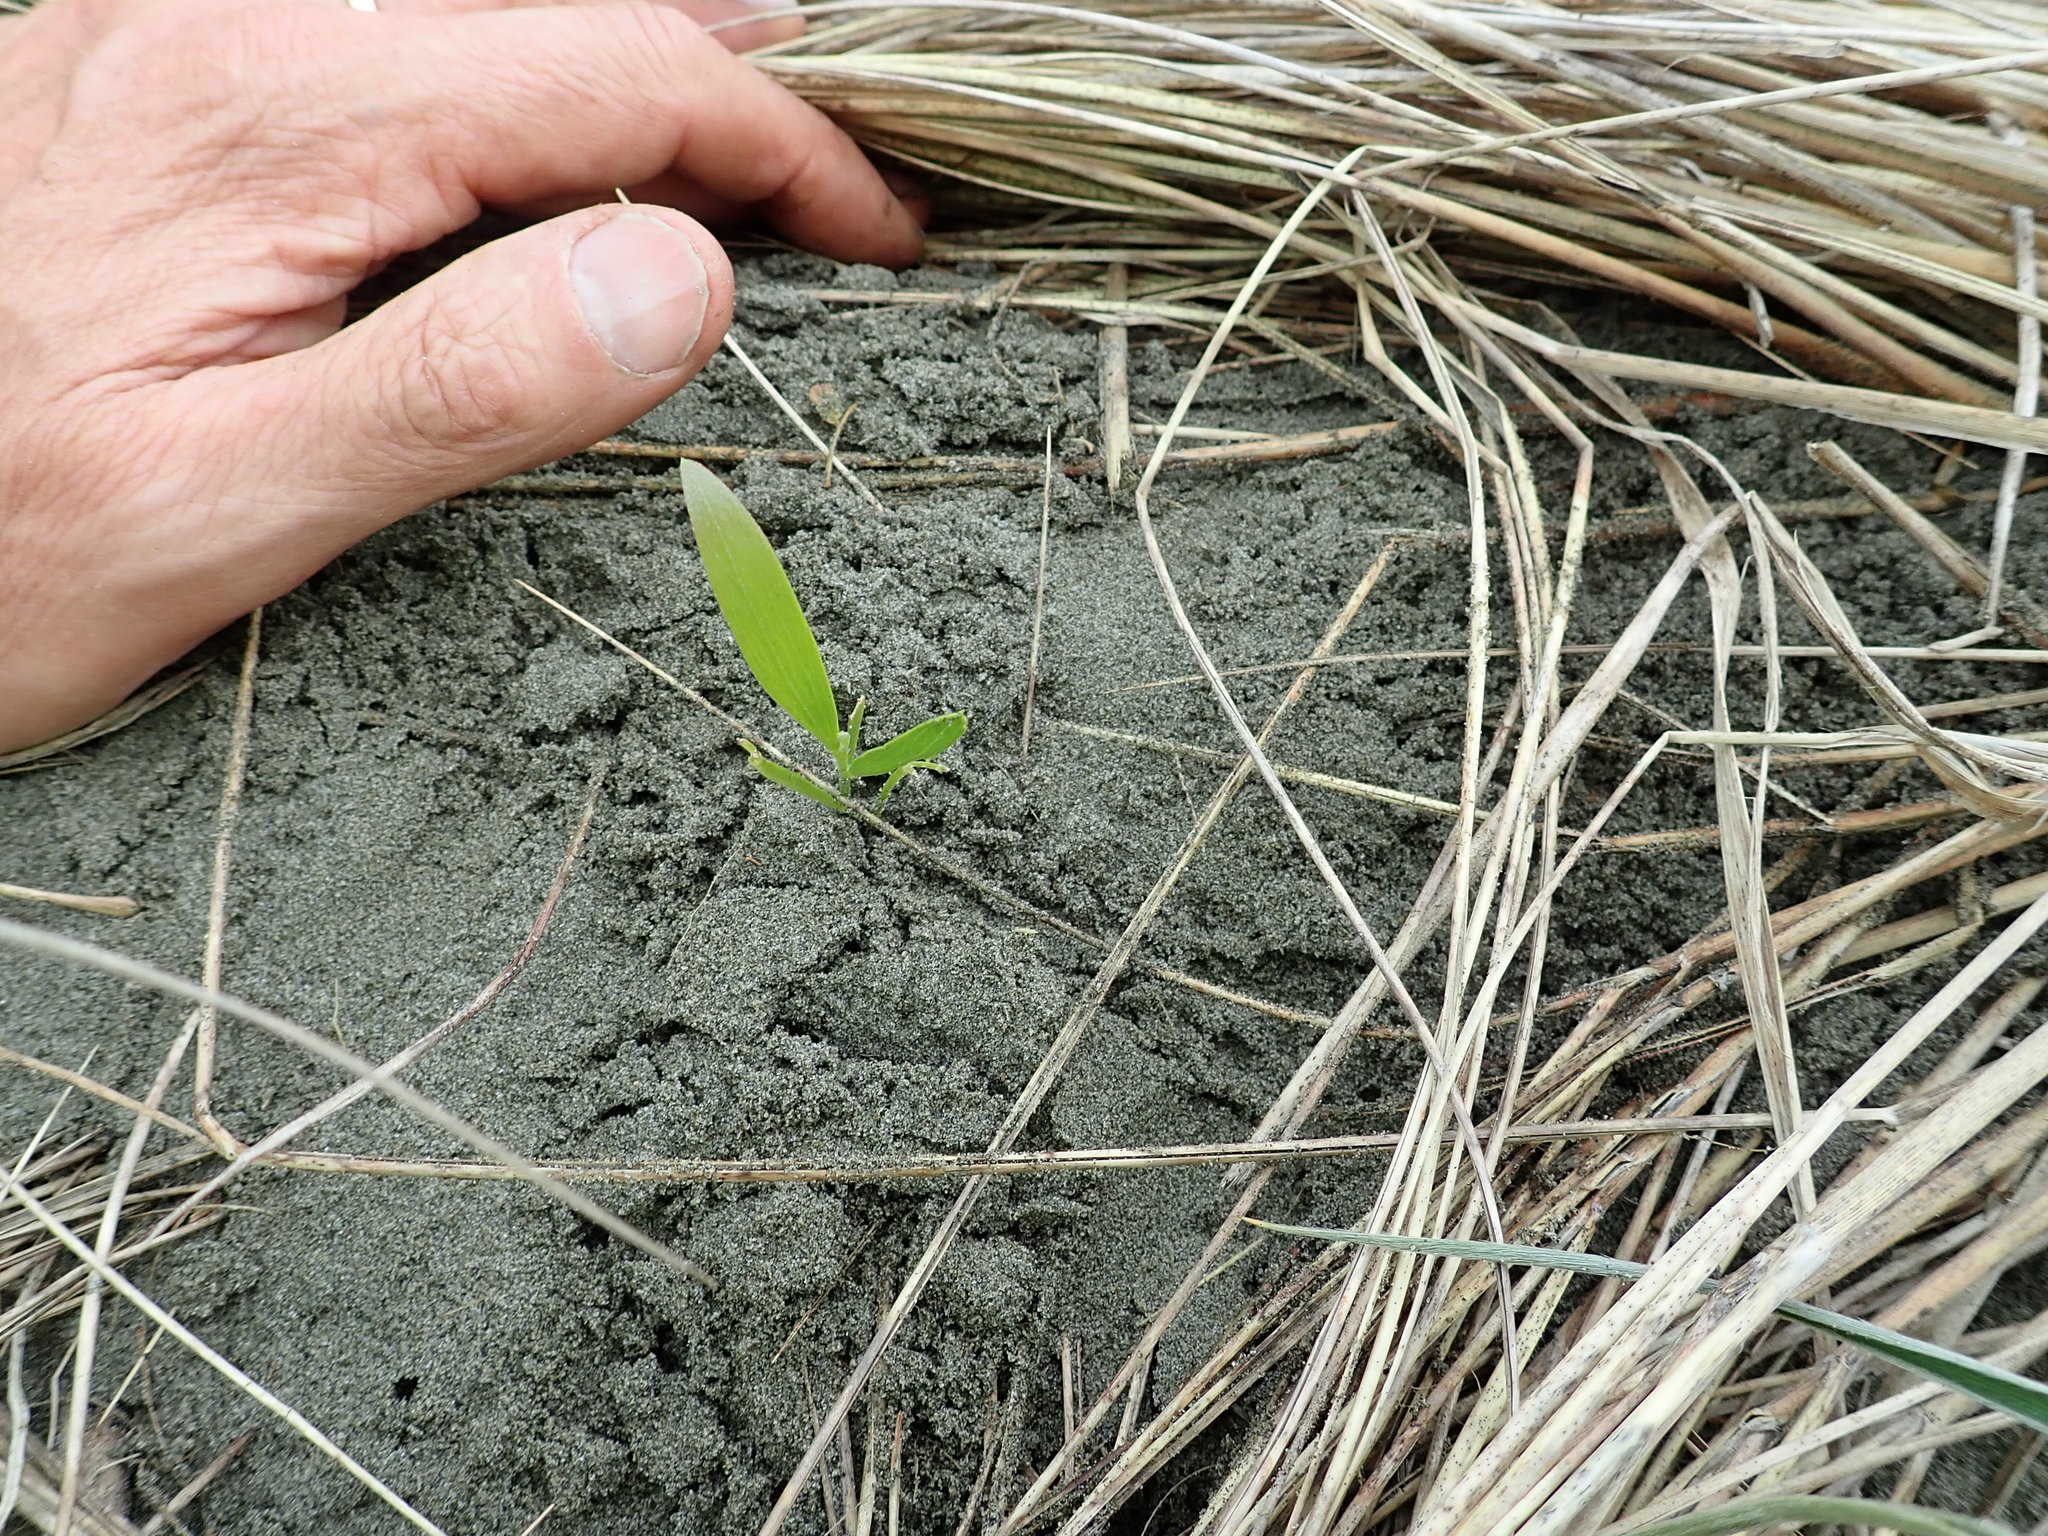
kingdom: Plantae
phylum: Tracheophyta
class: Magnoliopsida
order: Fabales
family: Fabaceae
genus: Acacia
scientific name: Acacia longifolia
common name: Sydney golden wattle
